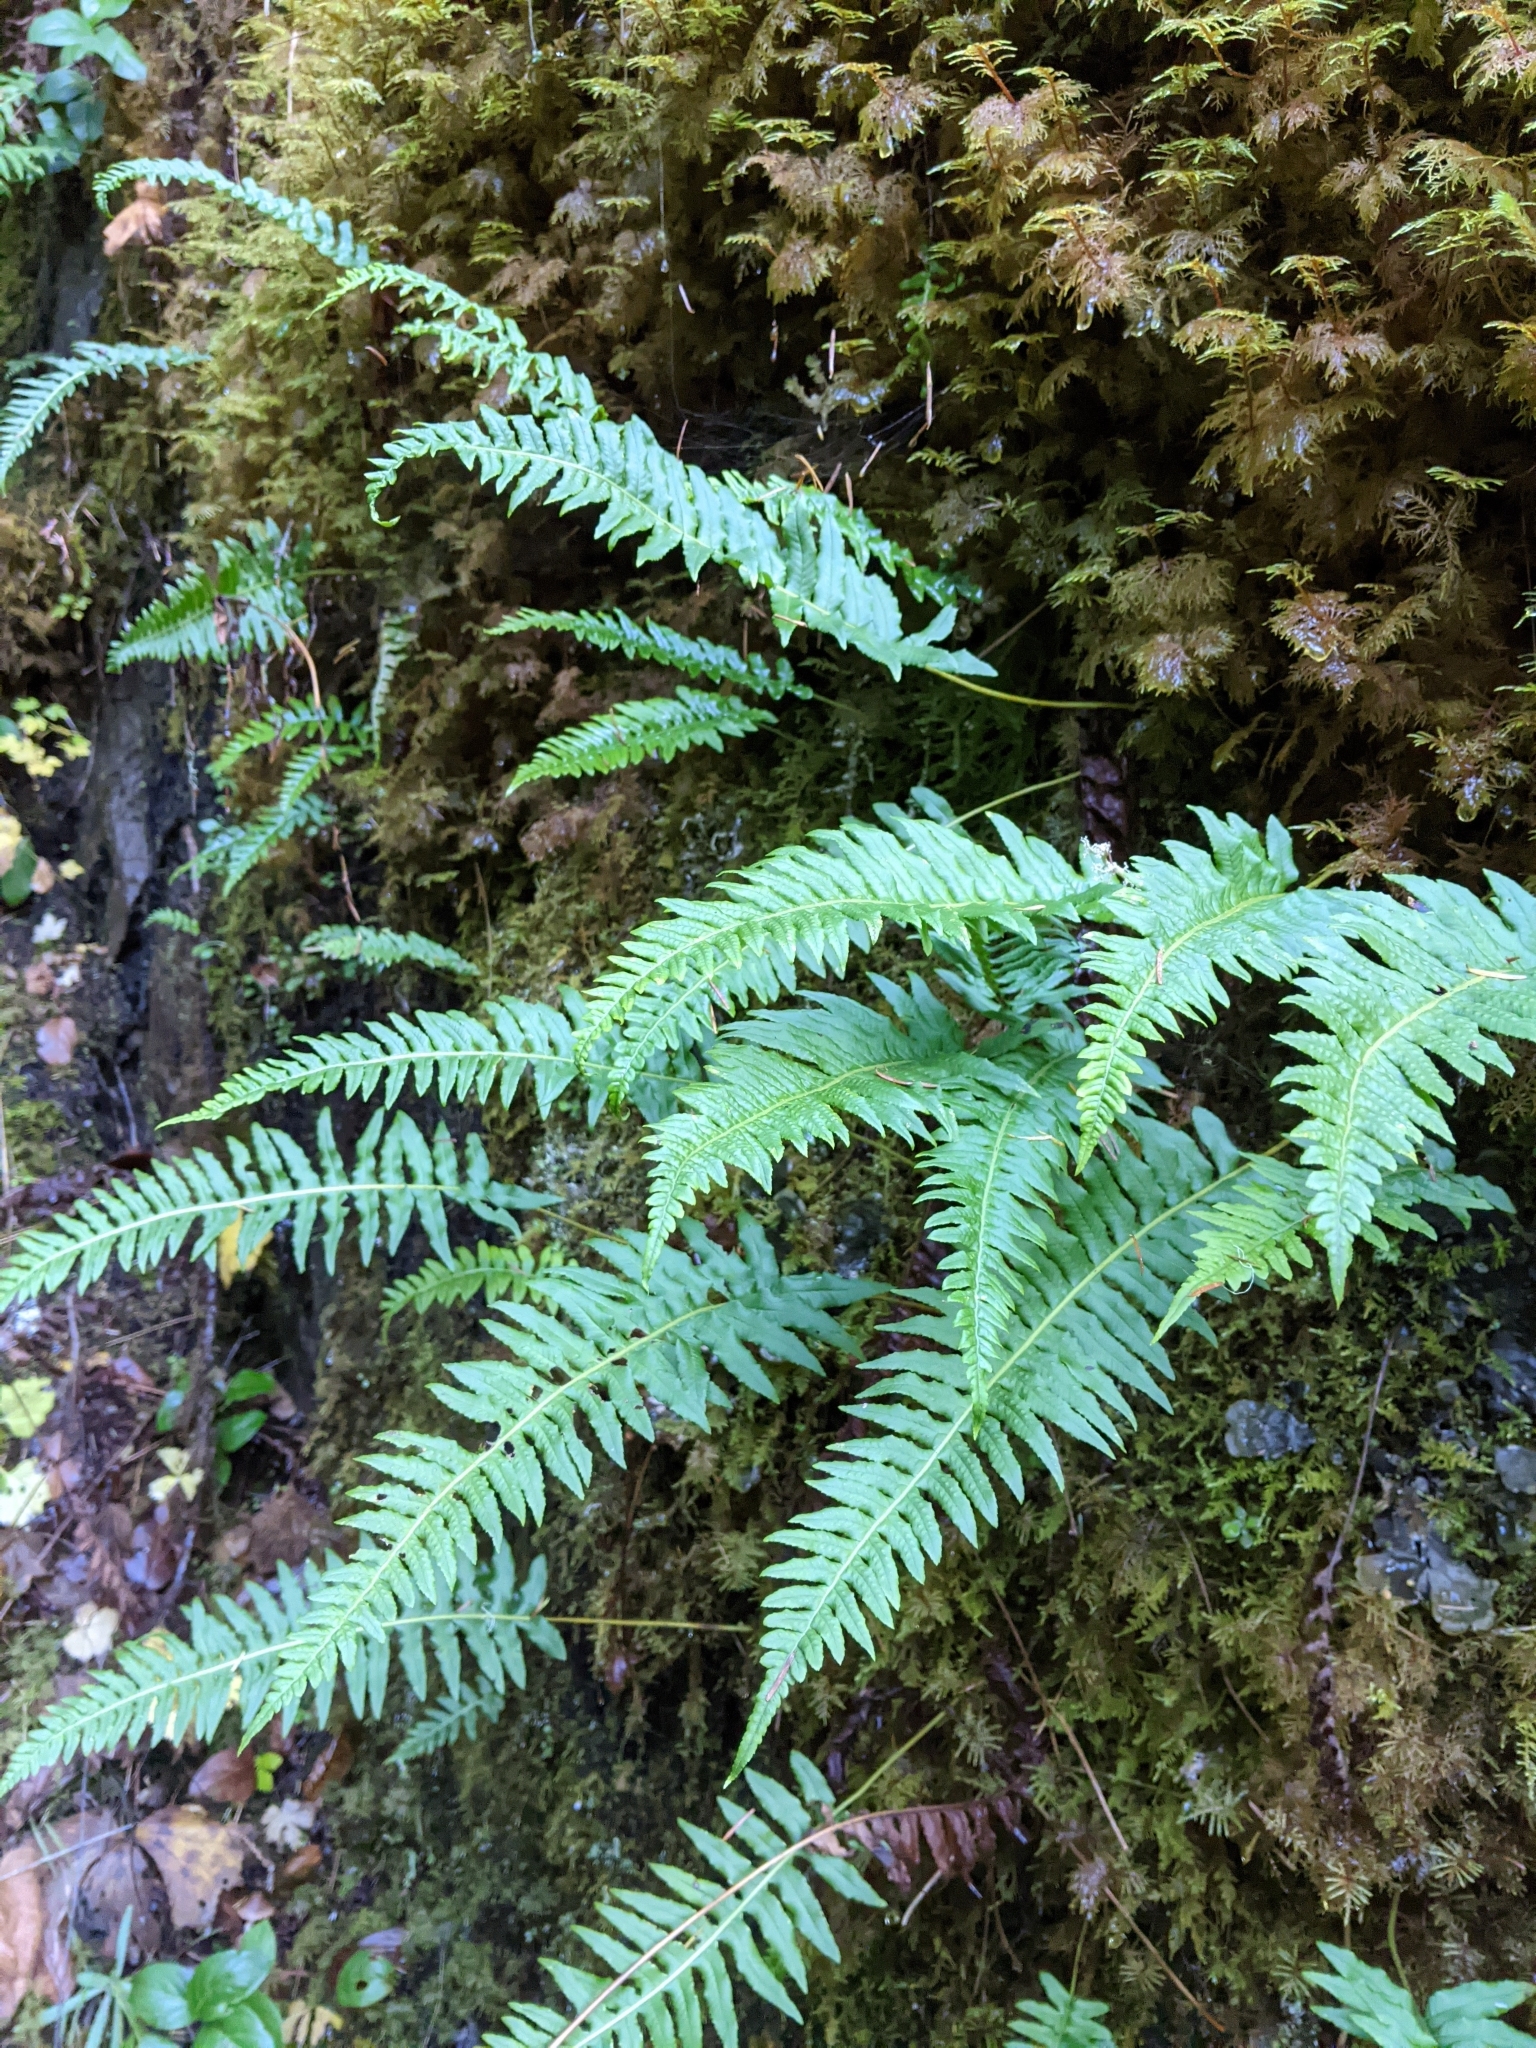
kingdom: Plantae
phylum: Tracheophyta
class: Polypodiopsida
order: Polypodiales
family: Polypodiaceae
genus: Polypodium
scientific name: Polypodium glycyrrhiza
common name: Licorice fern
